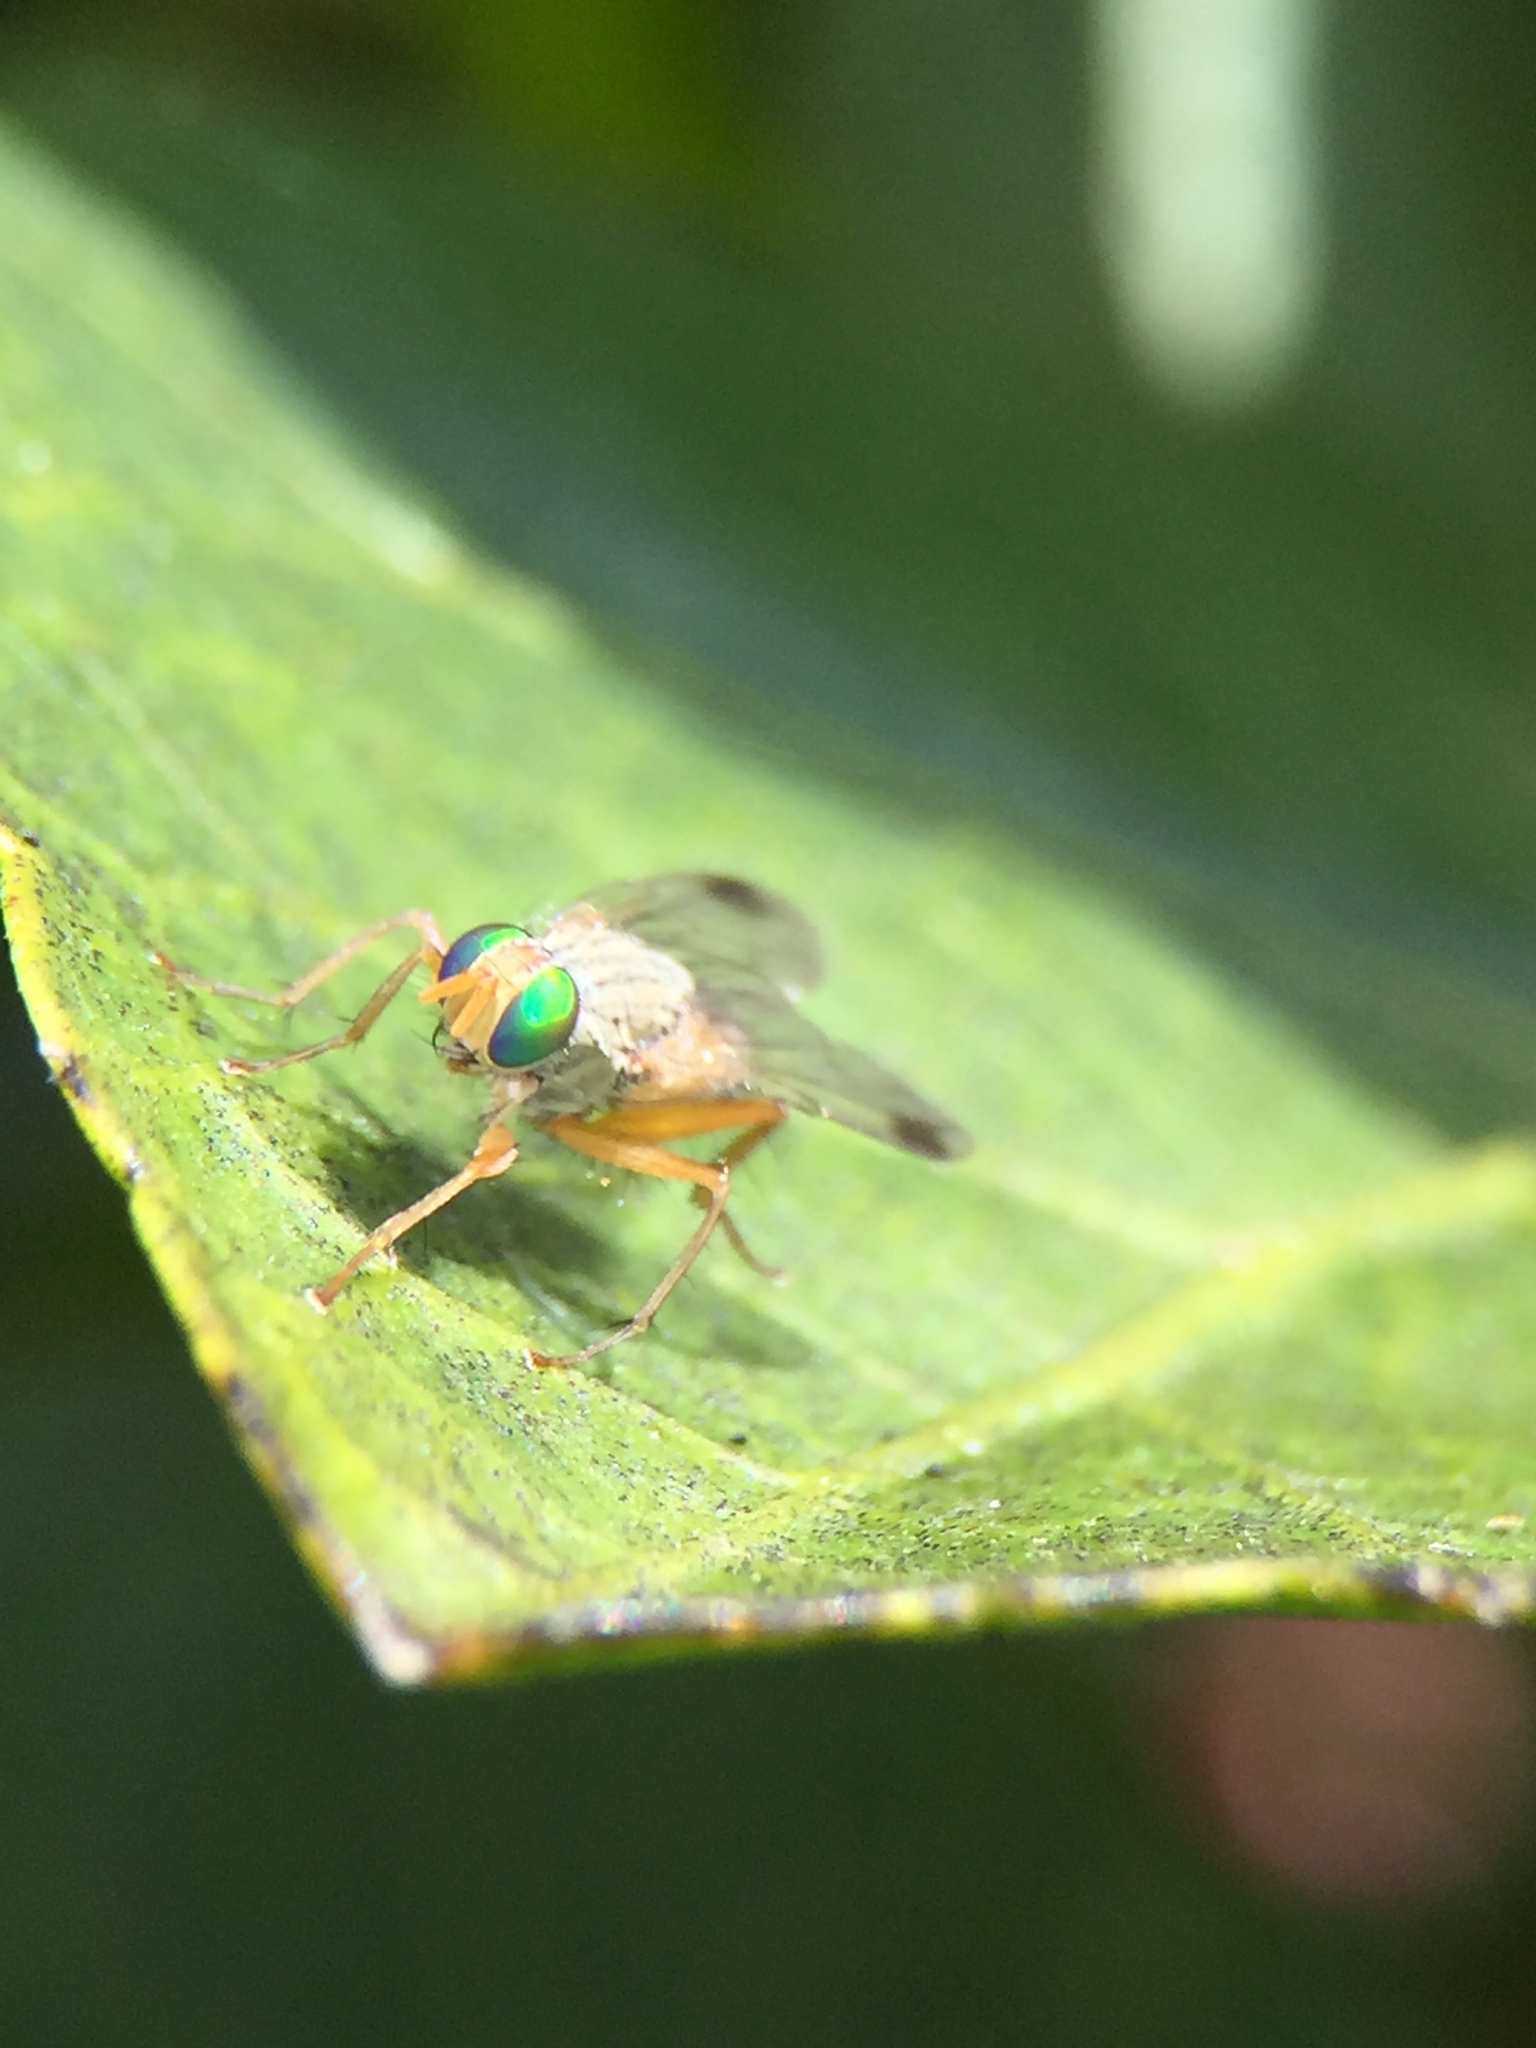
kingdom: Animalia
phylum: Arthropoda
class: Insecta
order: Diptera
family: Muscidae
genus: Pygophora
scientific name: Pygophora apicalis
